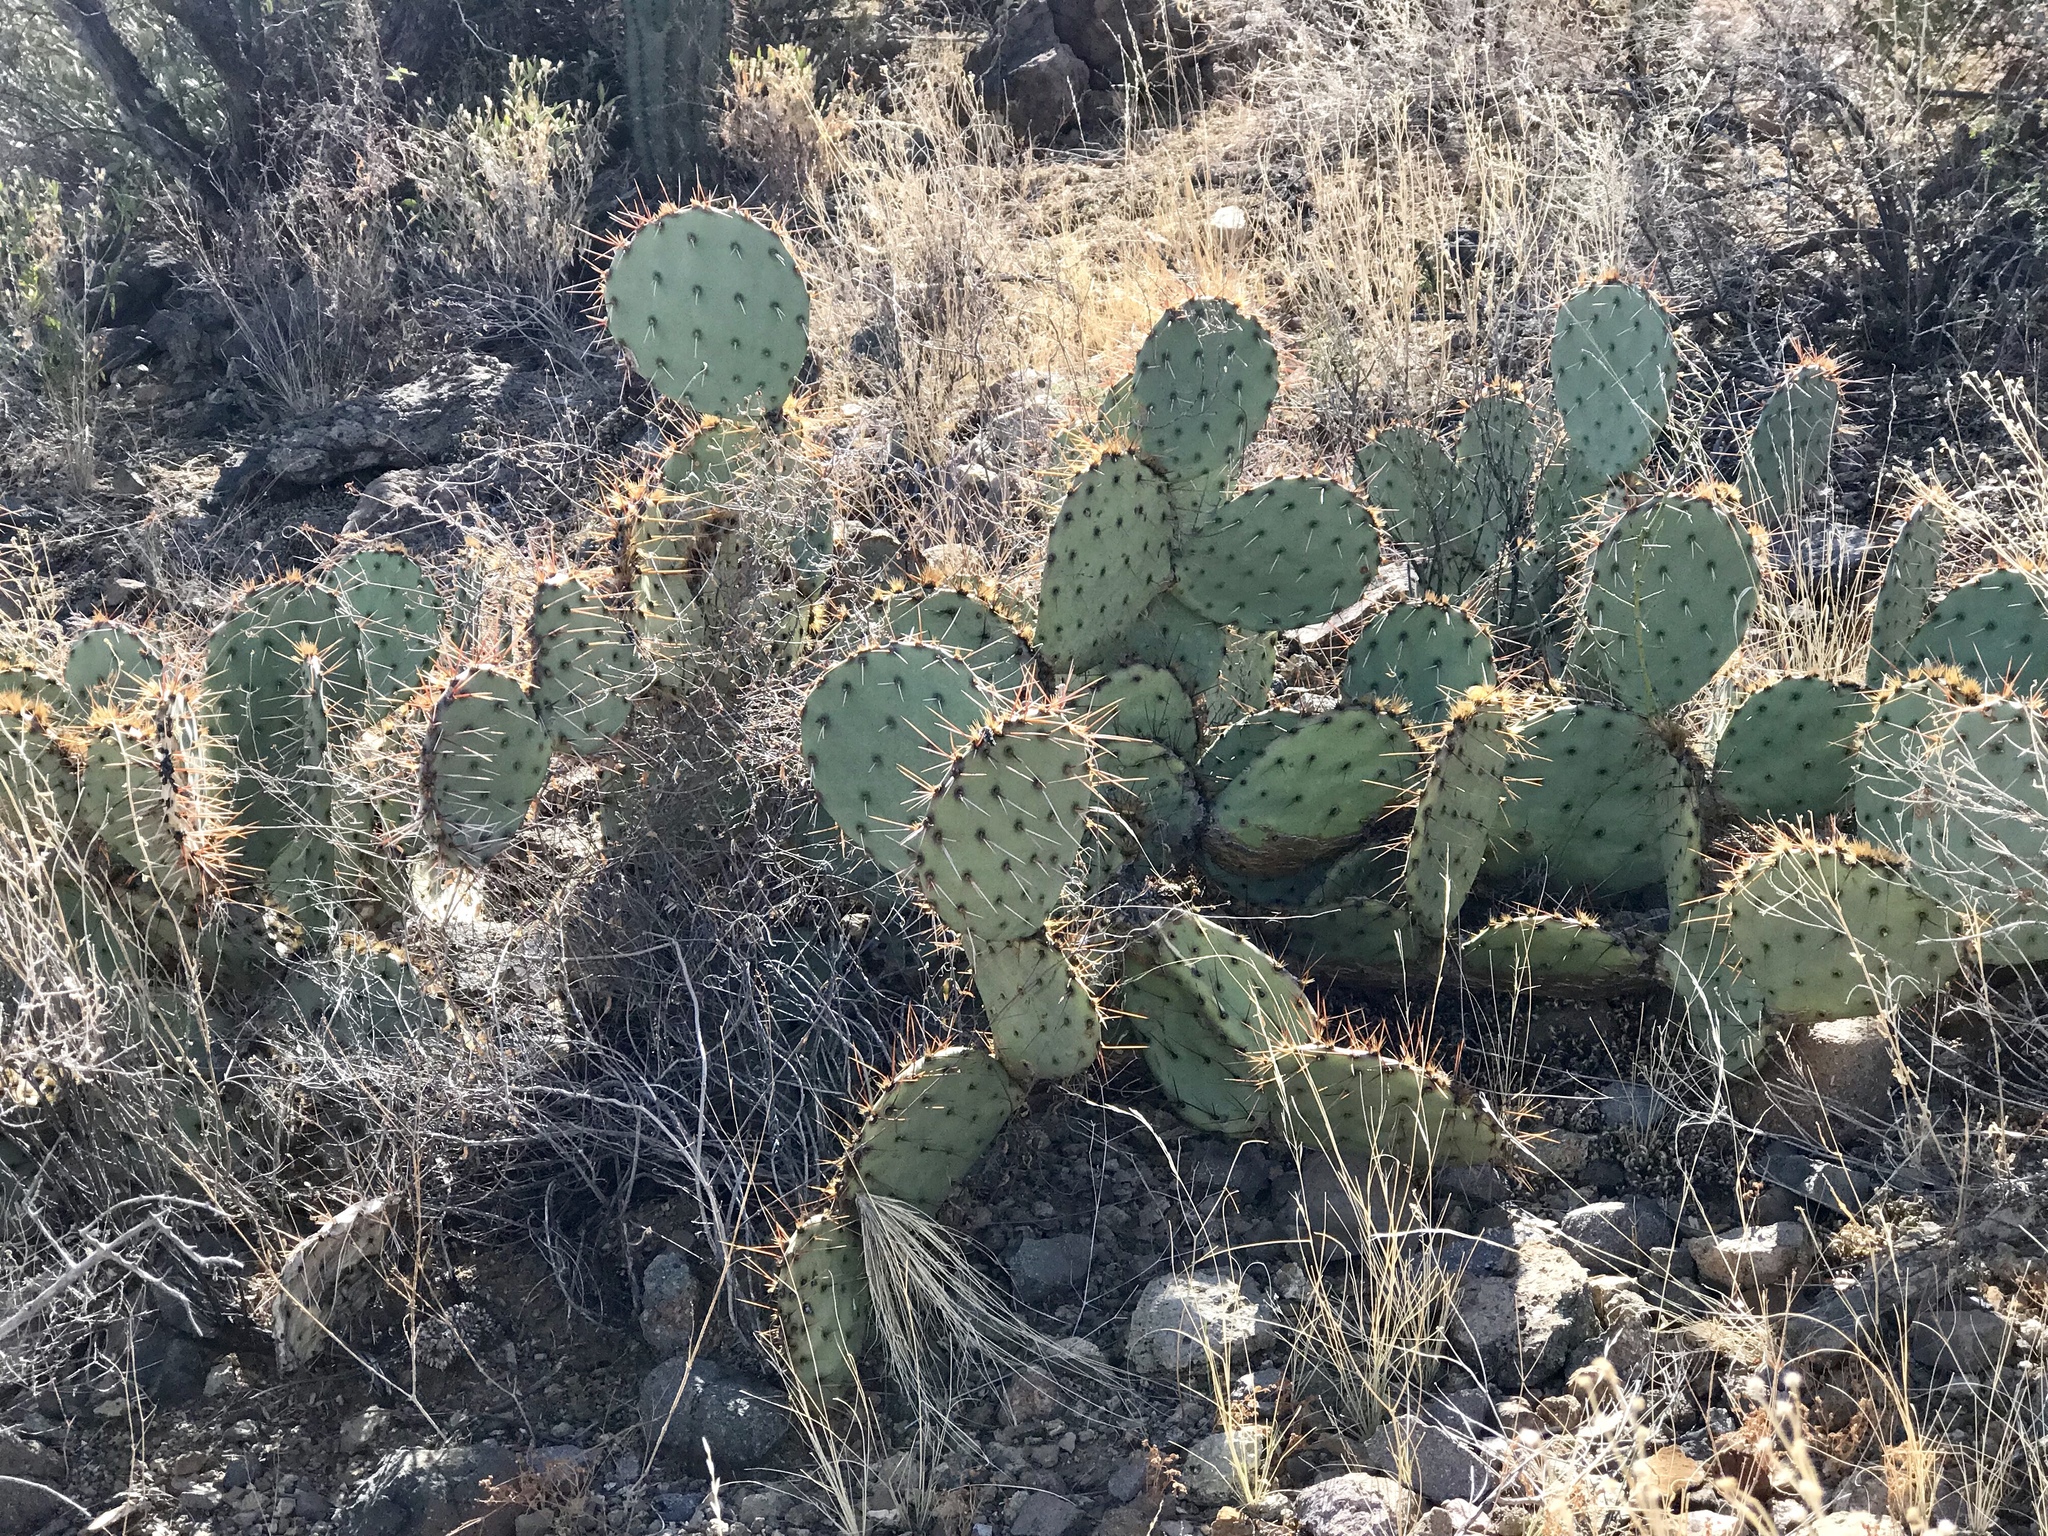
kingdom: Plantae
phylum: Tracheophyta
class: Magnoliopsida
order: Caryophyllales
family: Cactaceae
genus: Opuntia
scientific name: Opuntia engelmannii
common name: Cactus-apple
